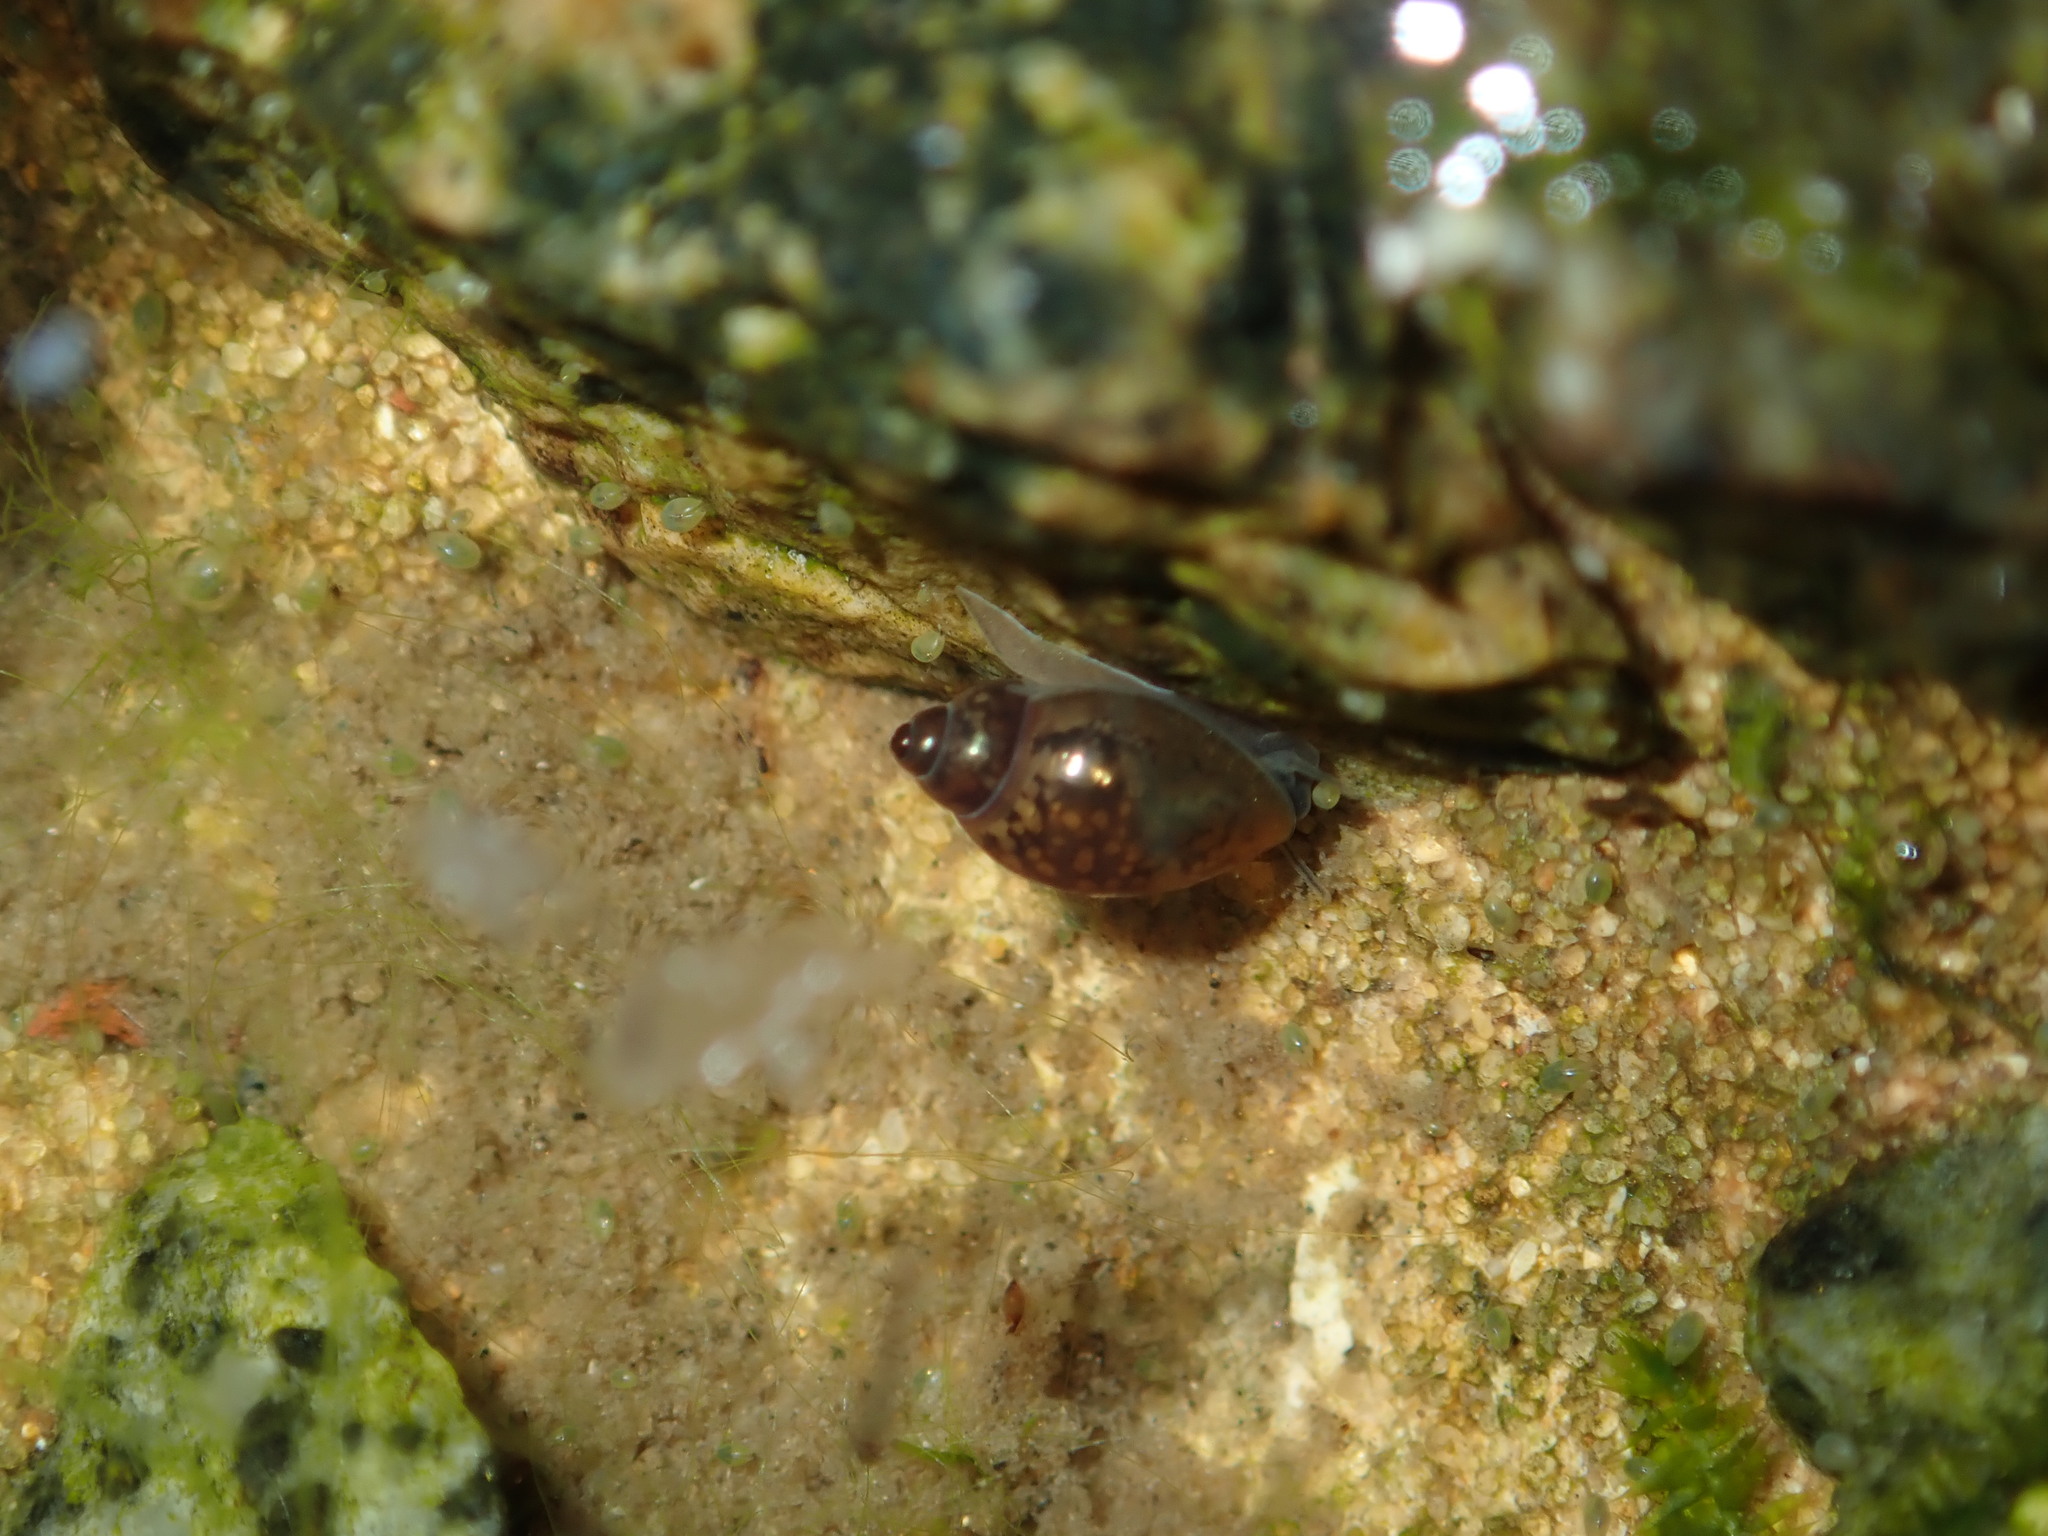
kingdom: Animalia
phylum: Mollusca
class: Gastropoda
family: Physidae
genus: Physella
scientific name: Physella acuta
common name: European physa
